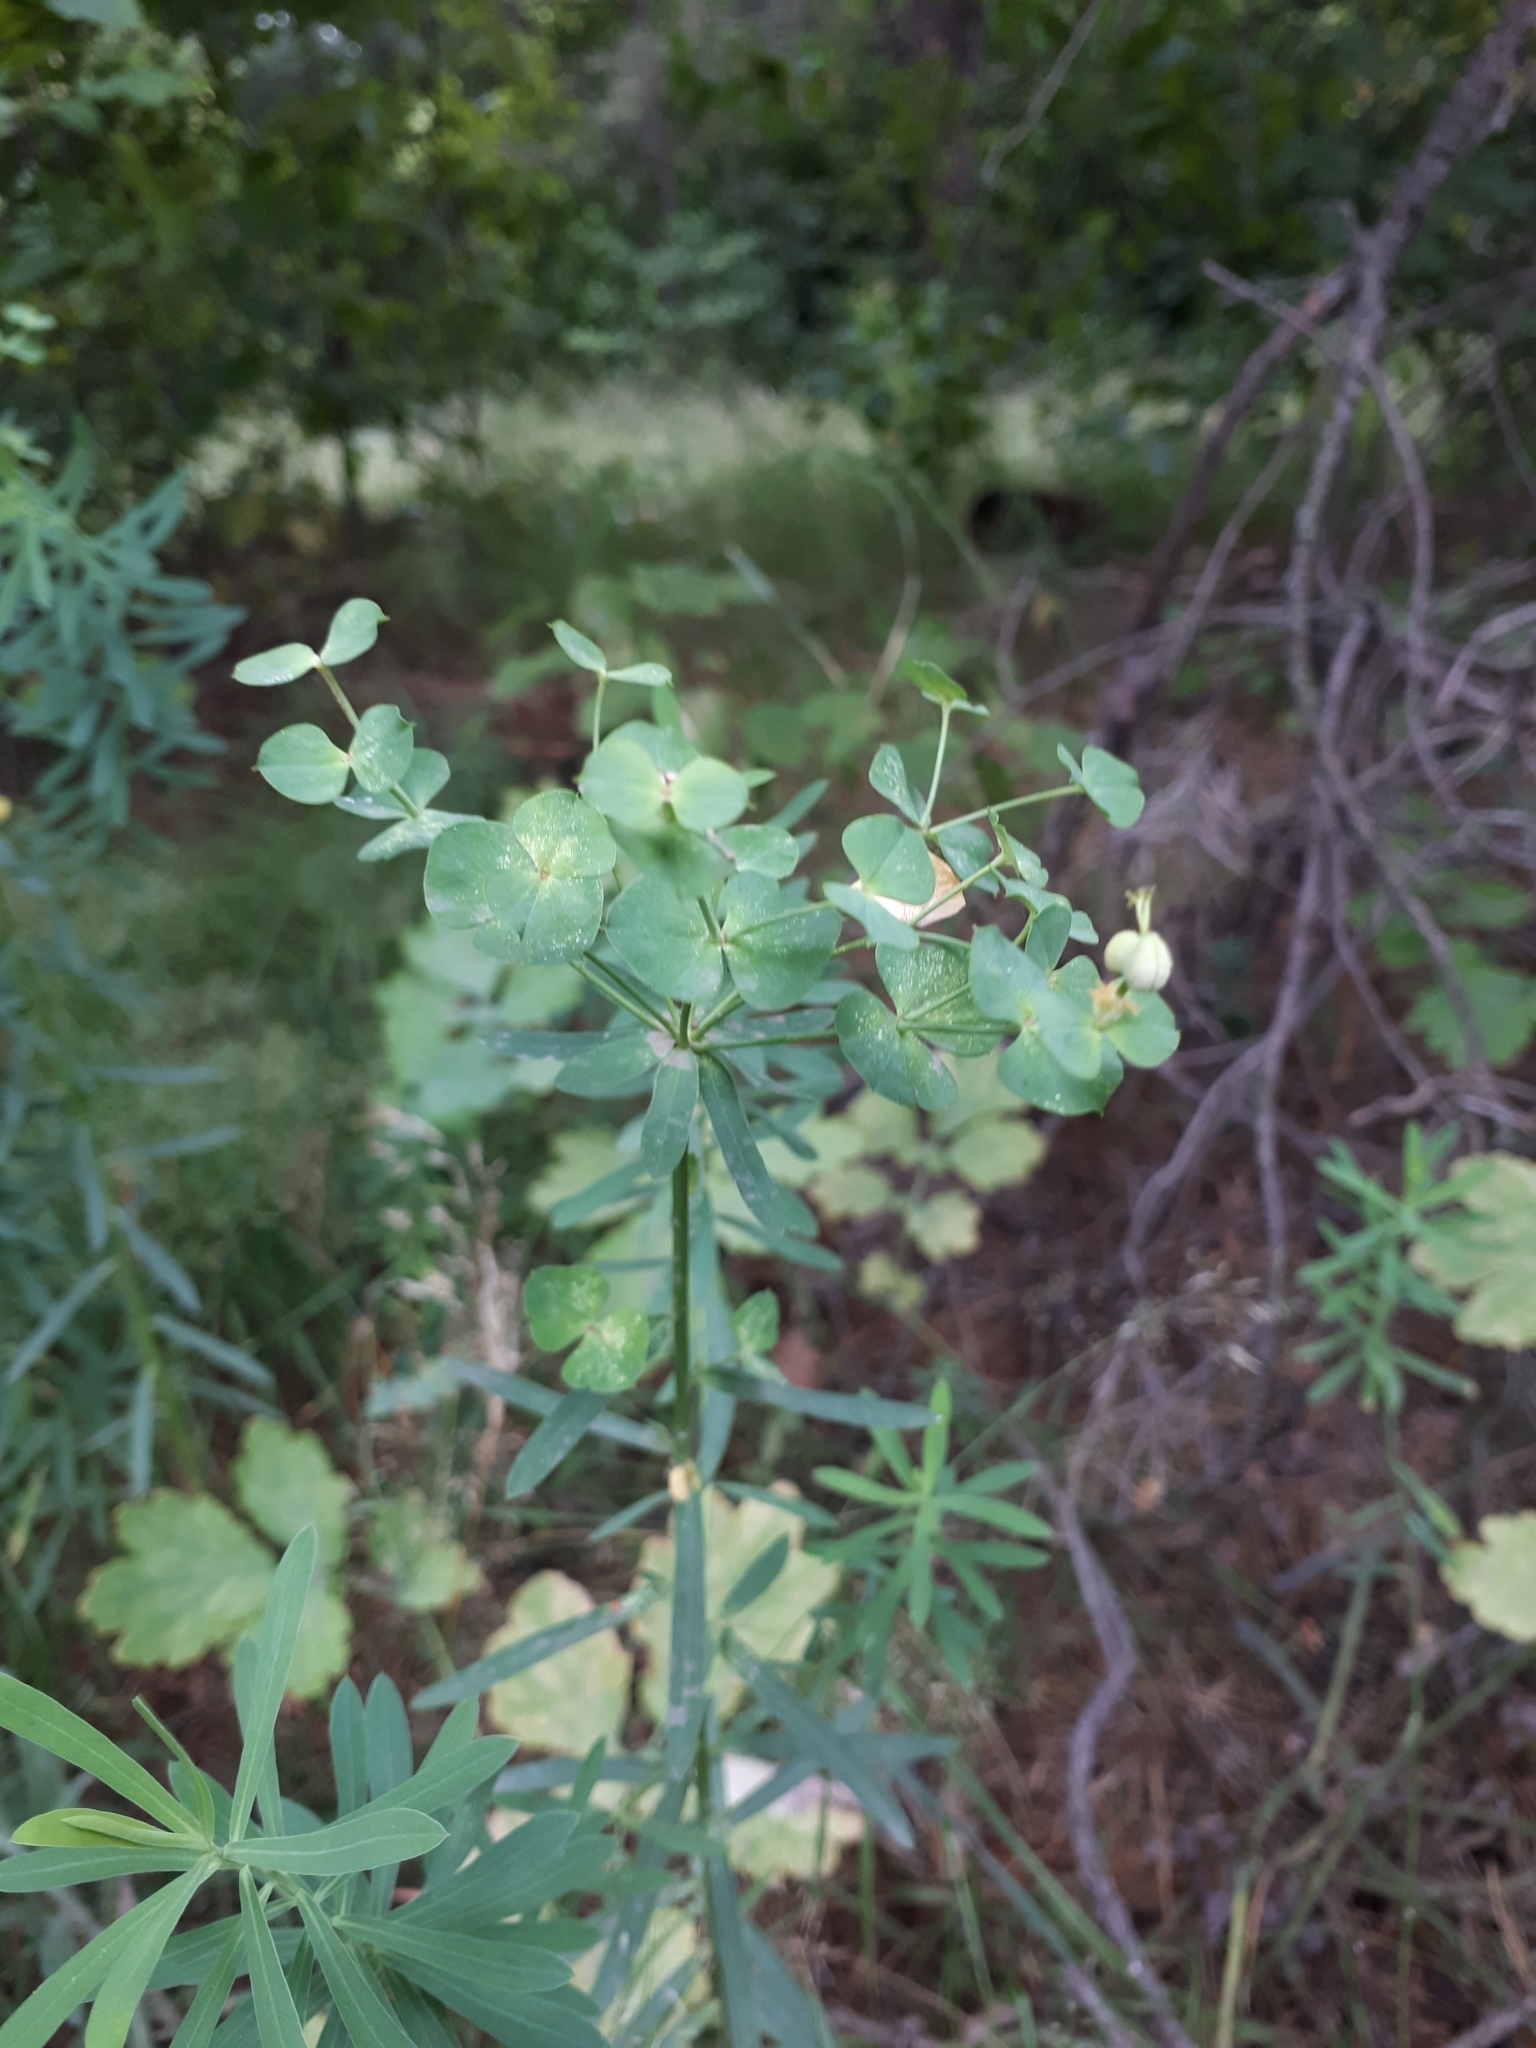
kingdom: Plantae
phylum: Tracheophyta
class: Magnoliopsida
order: Malpighiales
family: Euphorbiaceae
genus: Euphorbia
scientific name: Euphorbia virgata
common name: Leafy spurge
